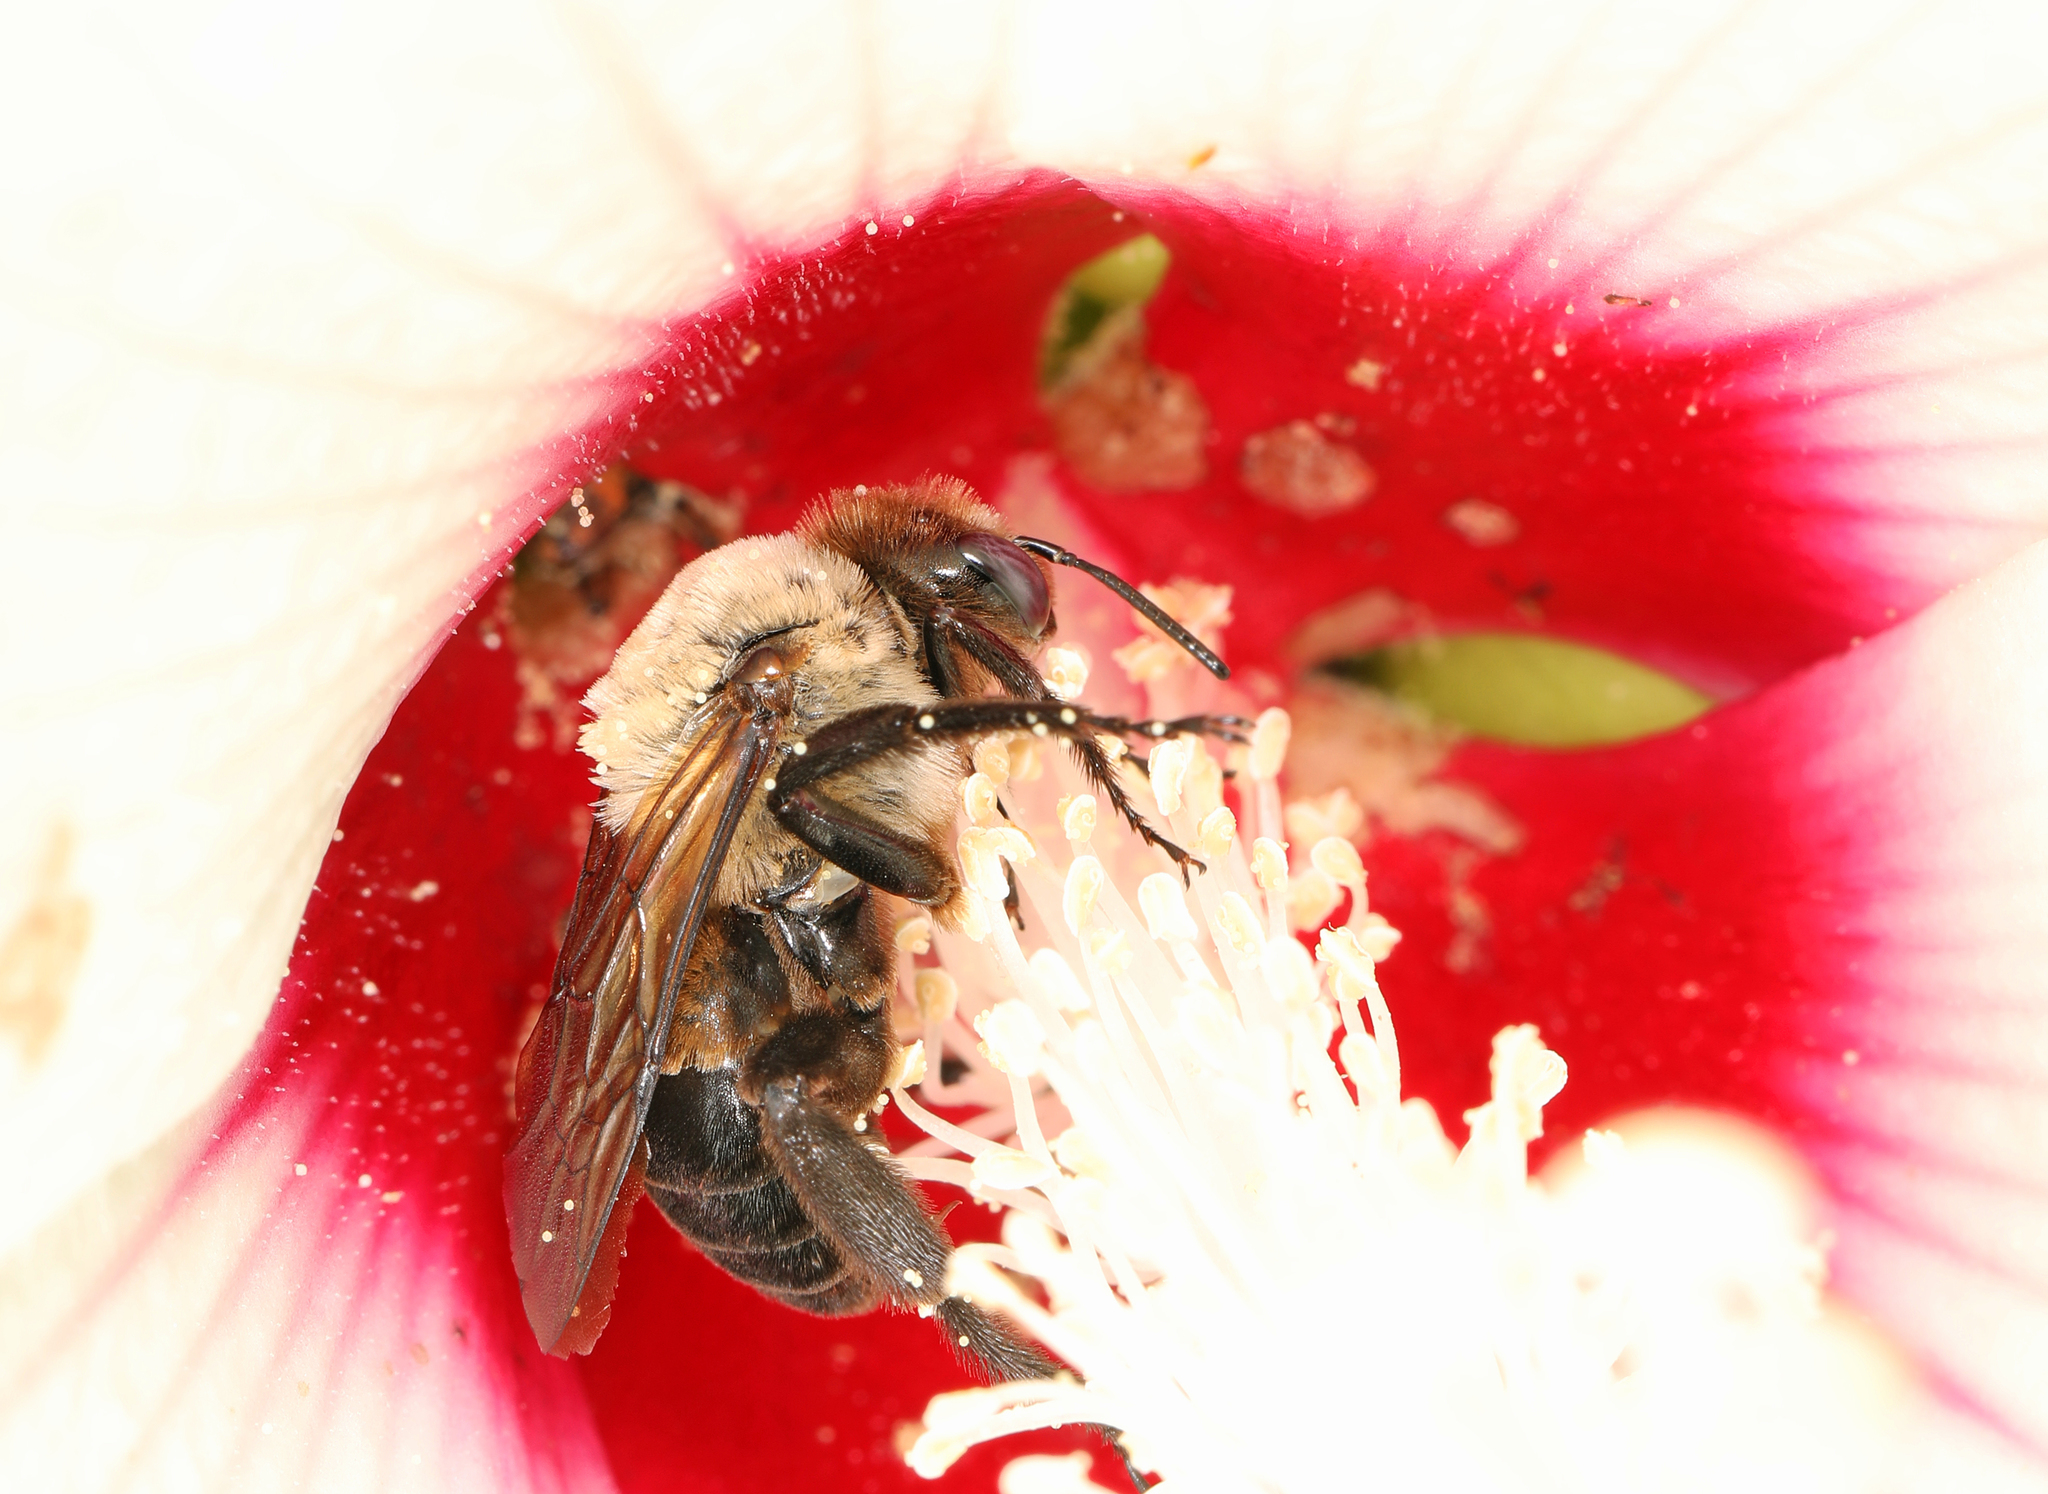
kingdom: Animalia
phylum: Arthropoda
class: Insecta
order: Hymenoptera
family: Apidae
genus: Ptilothrix
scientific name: Ptilothrix bombiformis
